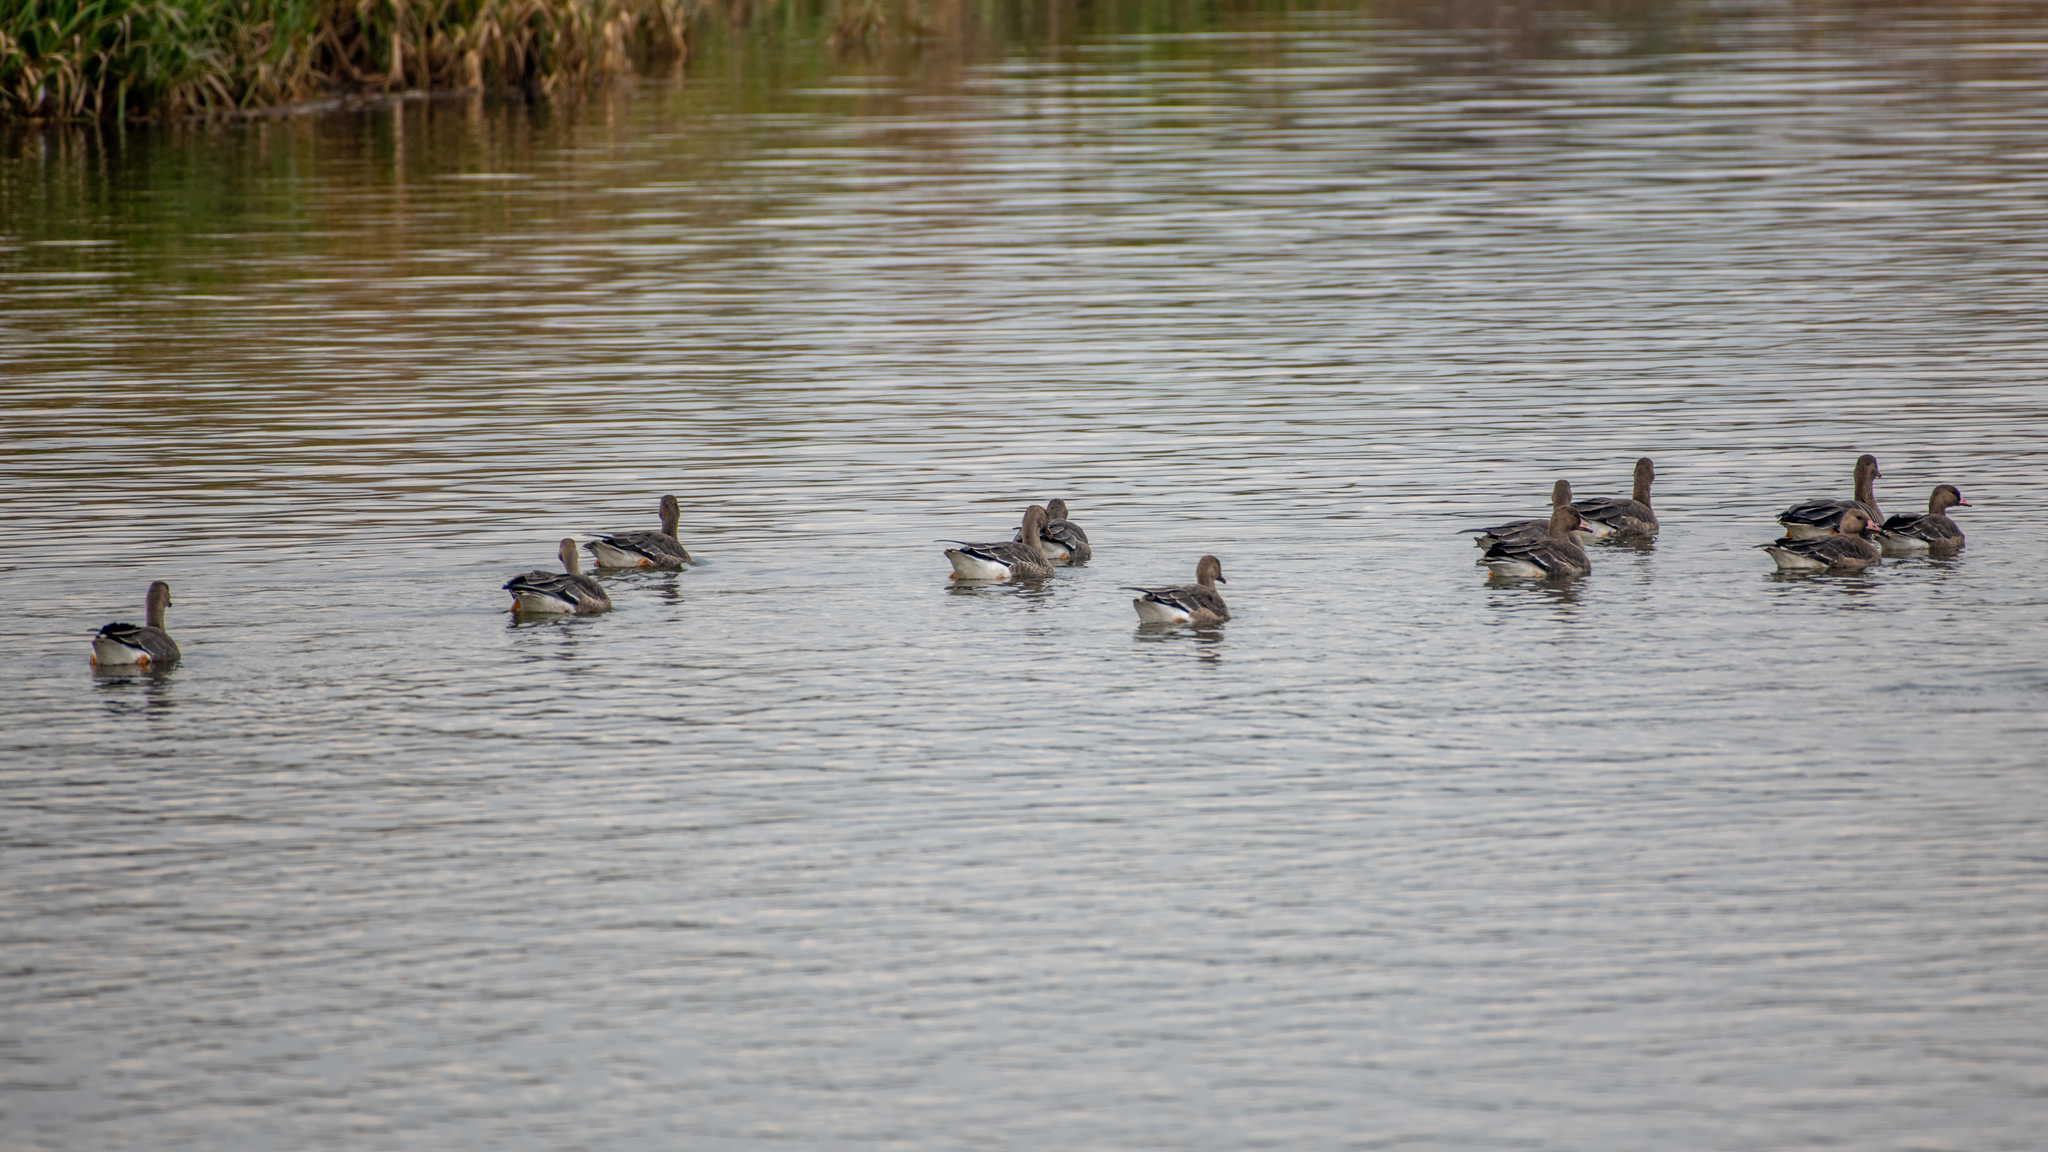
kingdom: Animalia
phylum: Chordata
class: Aves
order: Anseriformes
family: Anatidae
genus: Anser
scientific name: Anser albifrons
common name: Greater white-fronted goose
